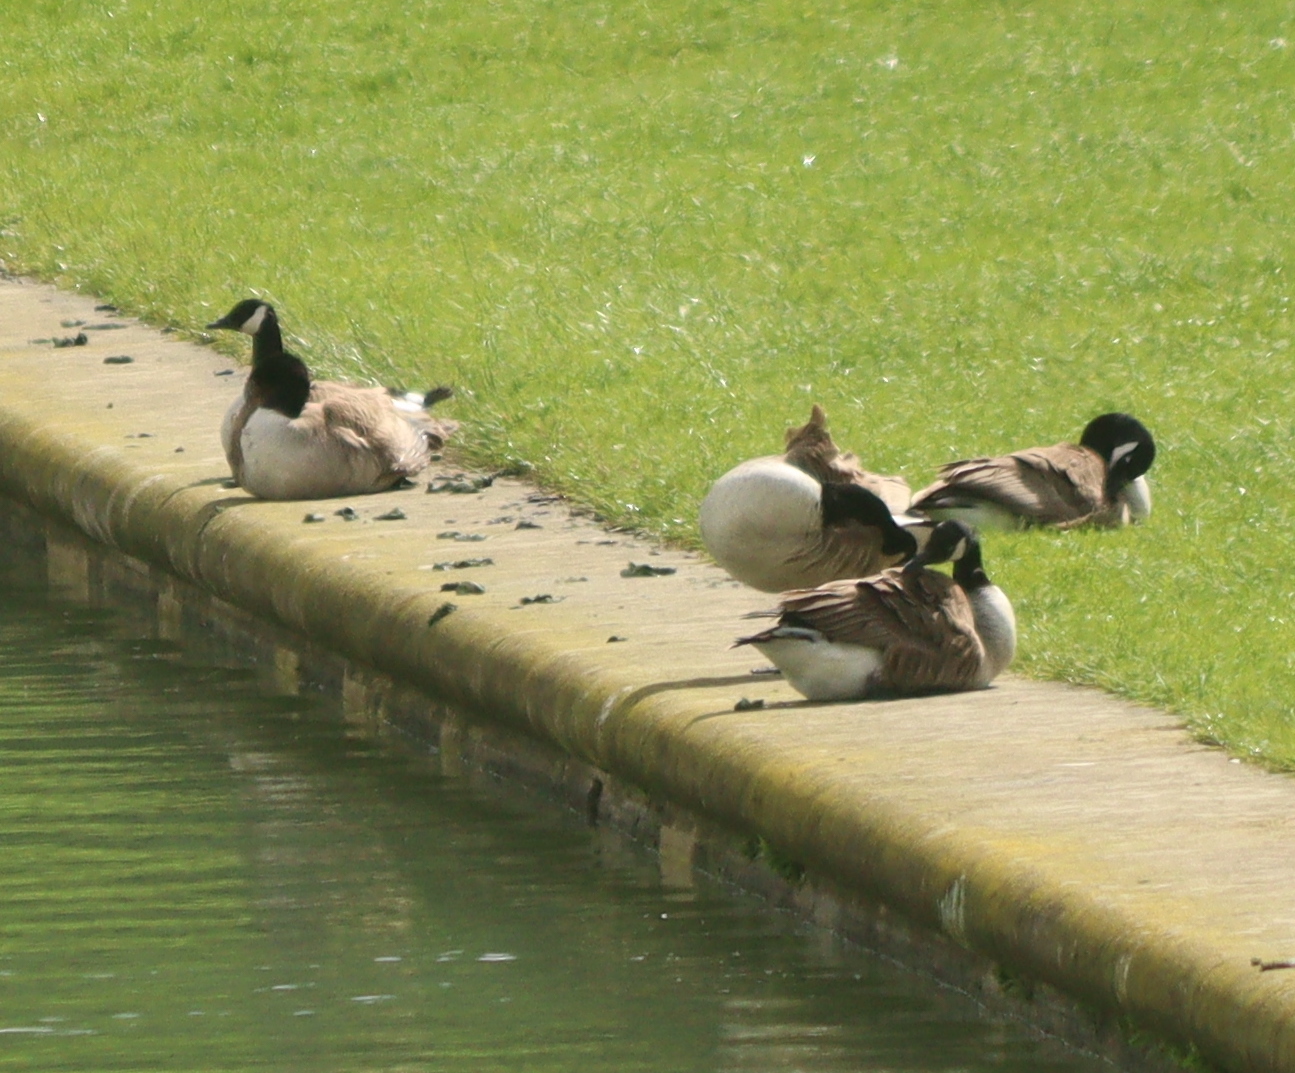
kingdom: Animalia
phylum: Chordata
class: Aves
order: Anseriformes
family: Anatidae
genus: Branta
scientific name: Branta canadensis
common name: Canada goose
